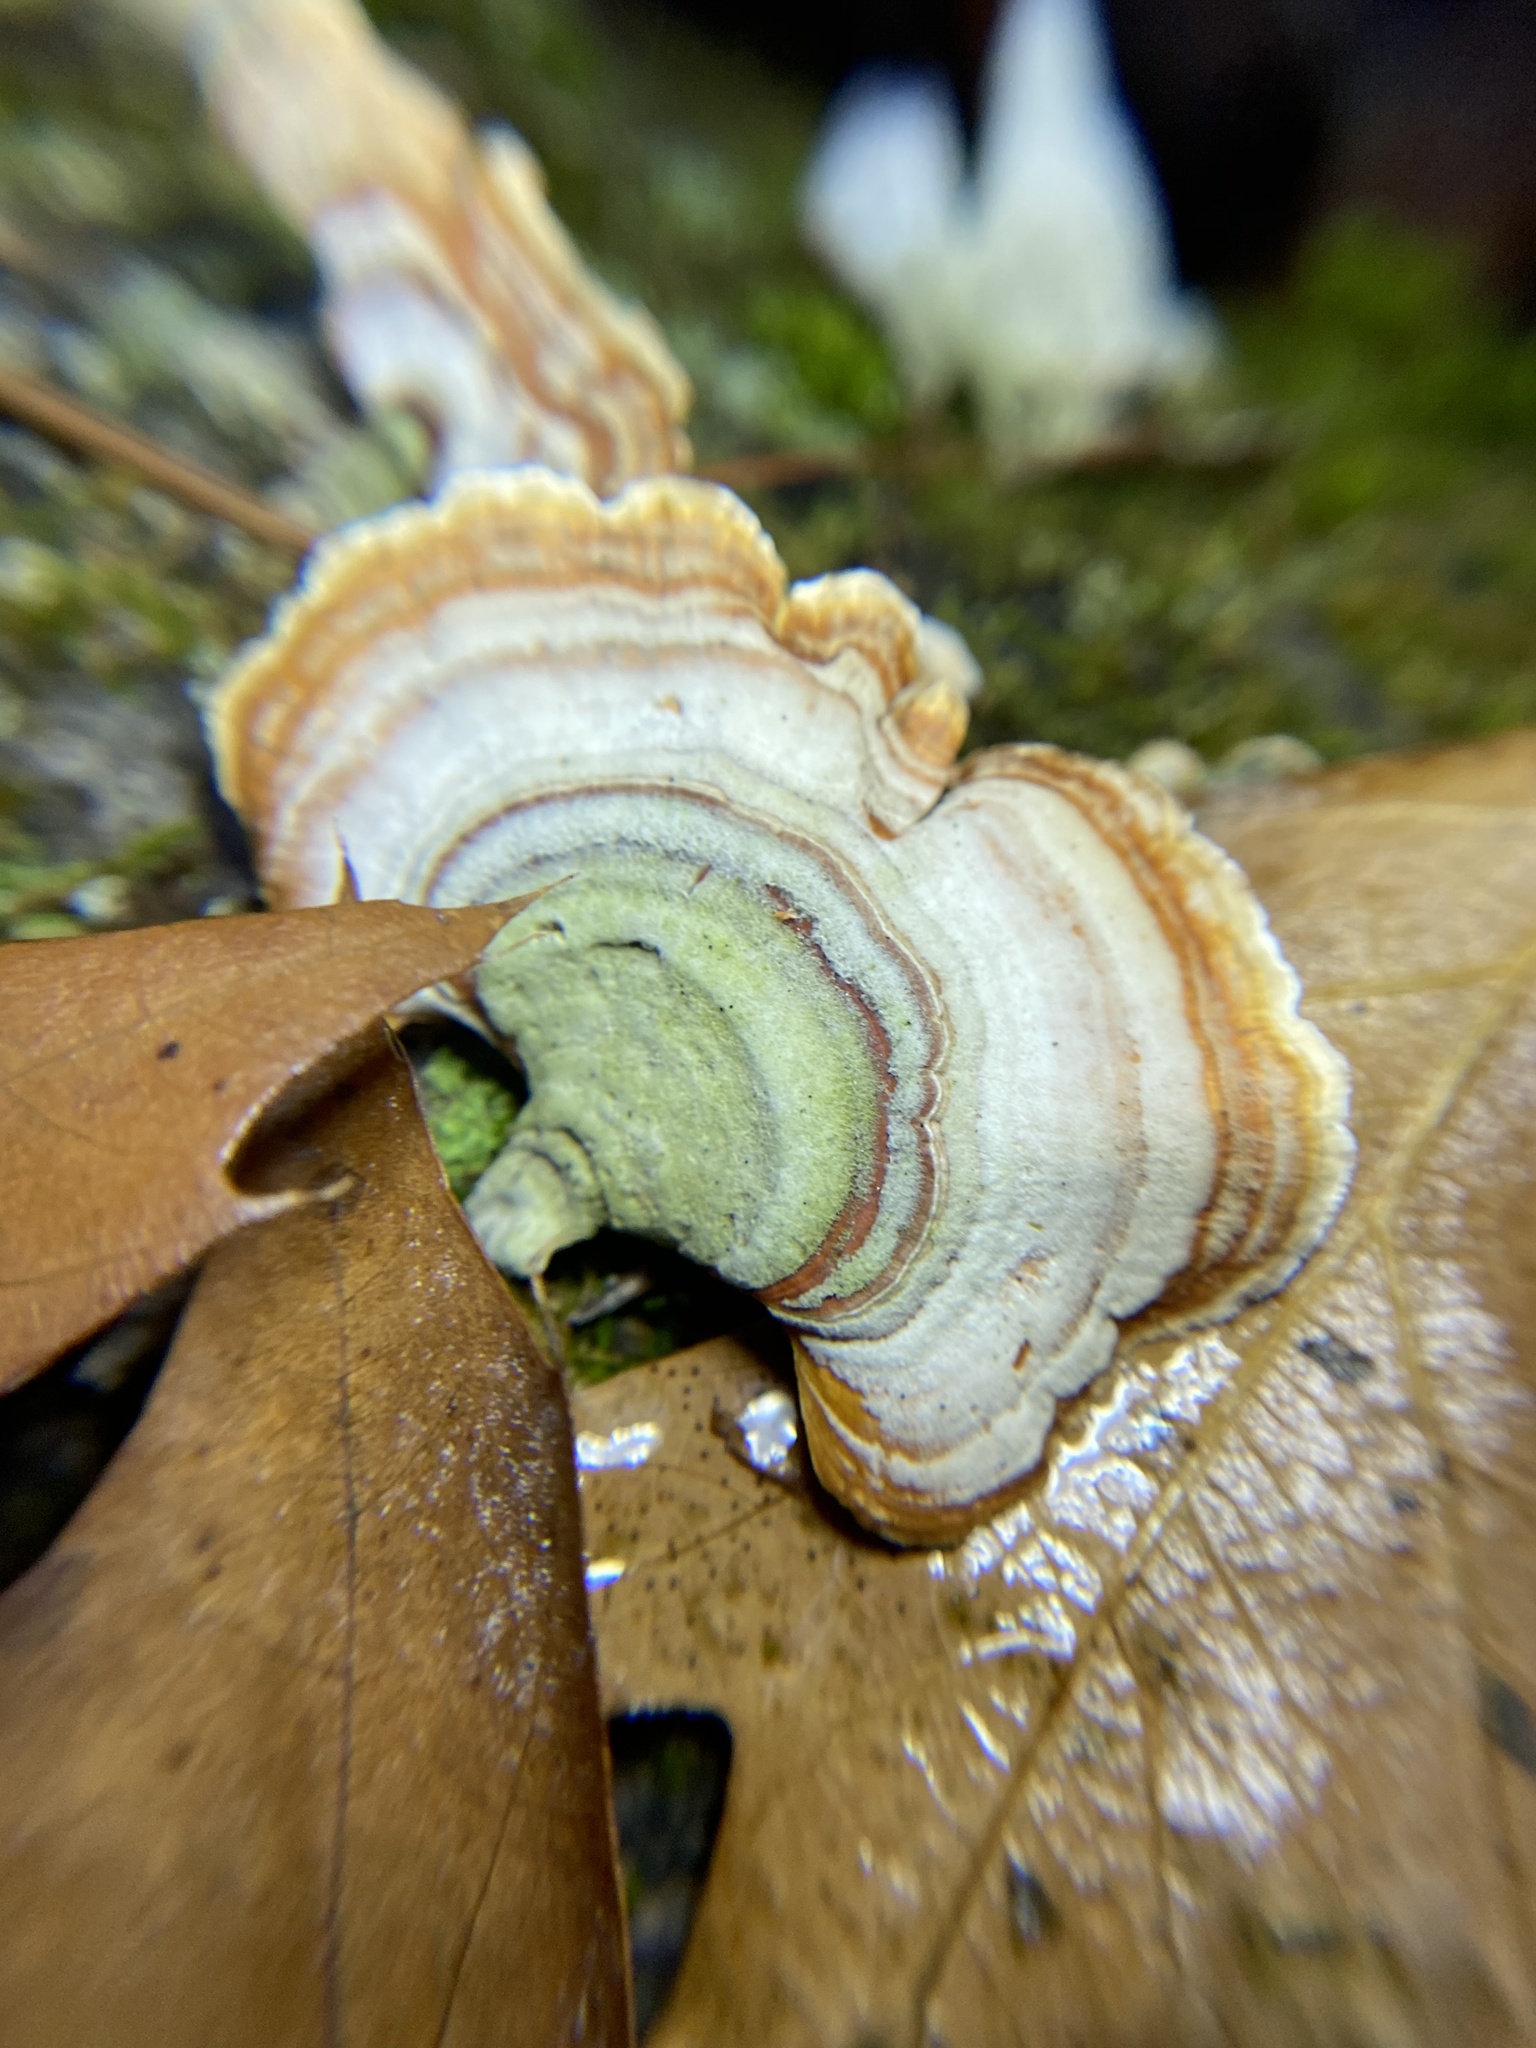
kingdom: Fungi
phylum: Basidiomycota
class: Agaricomycetes
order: Russulales
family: Stereaceae
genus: Stereum
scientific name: Stereum ostrea
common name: False turkeytail
